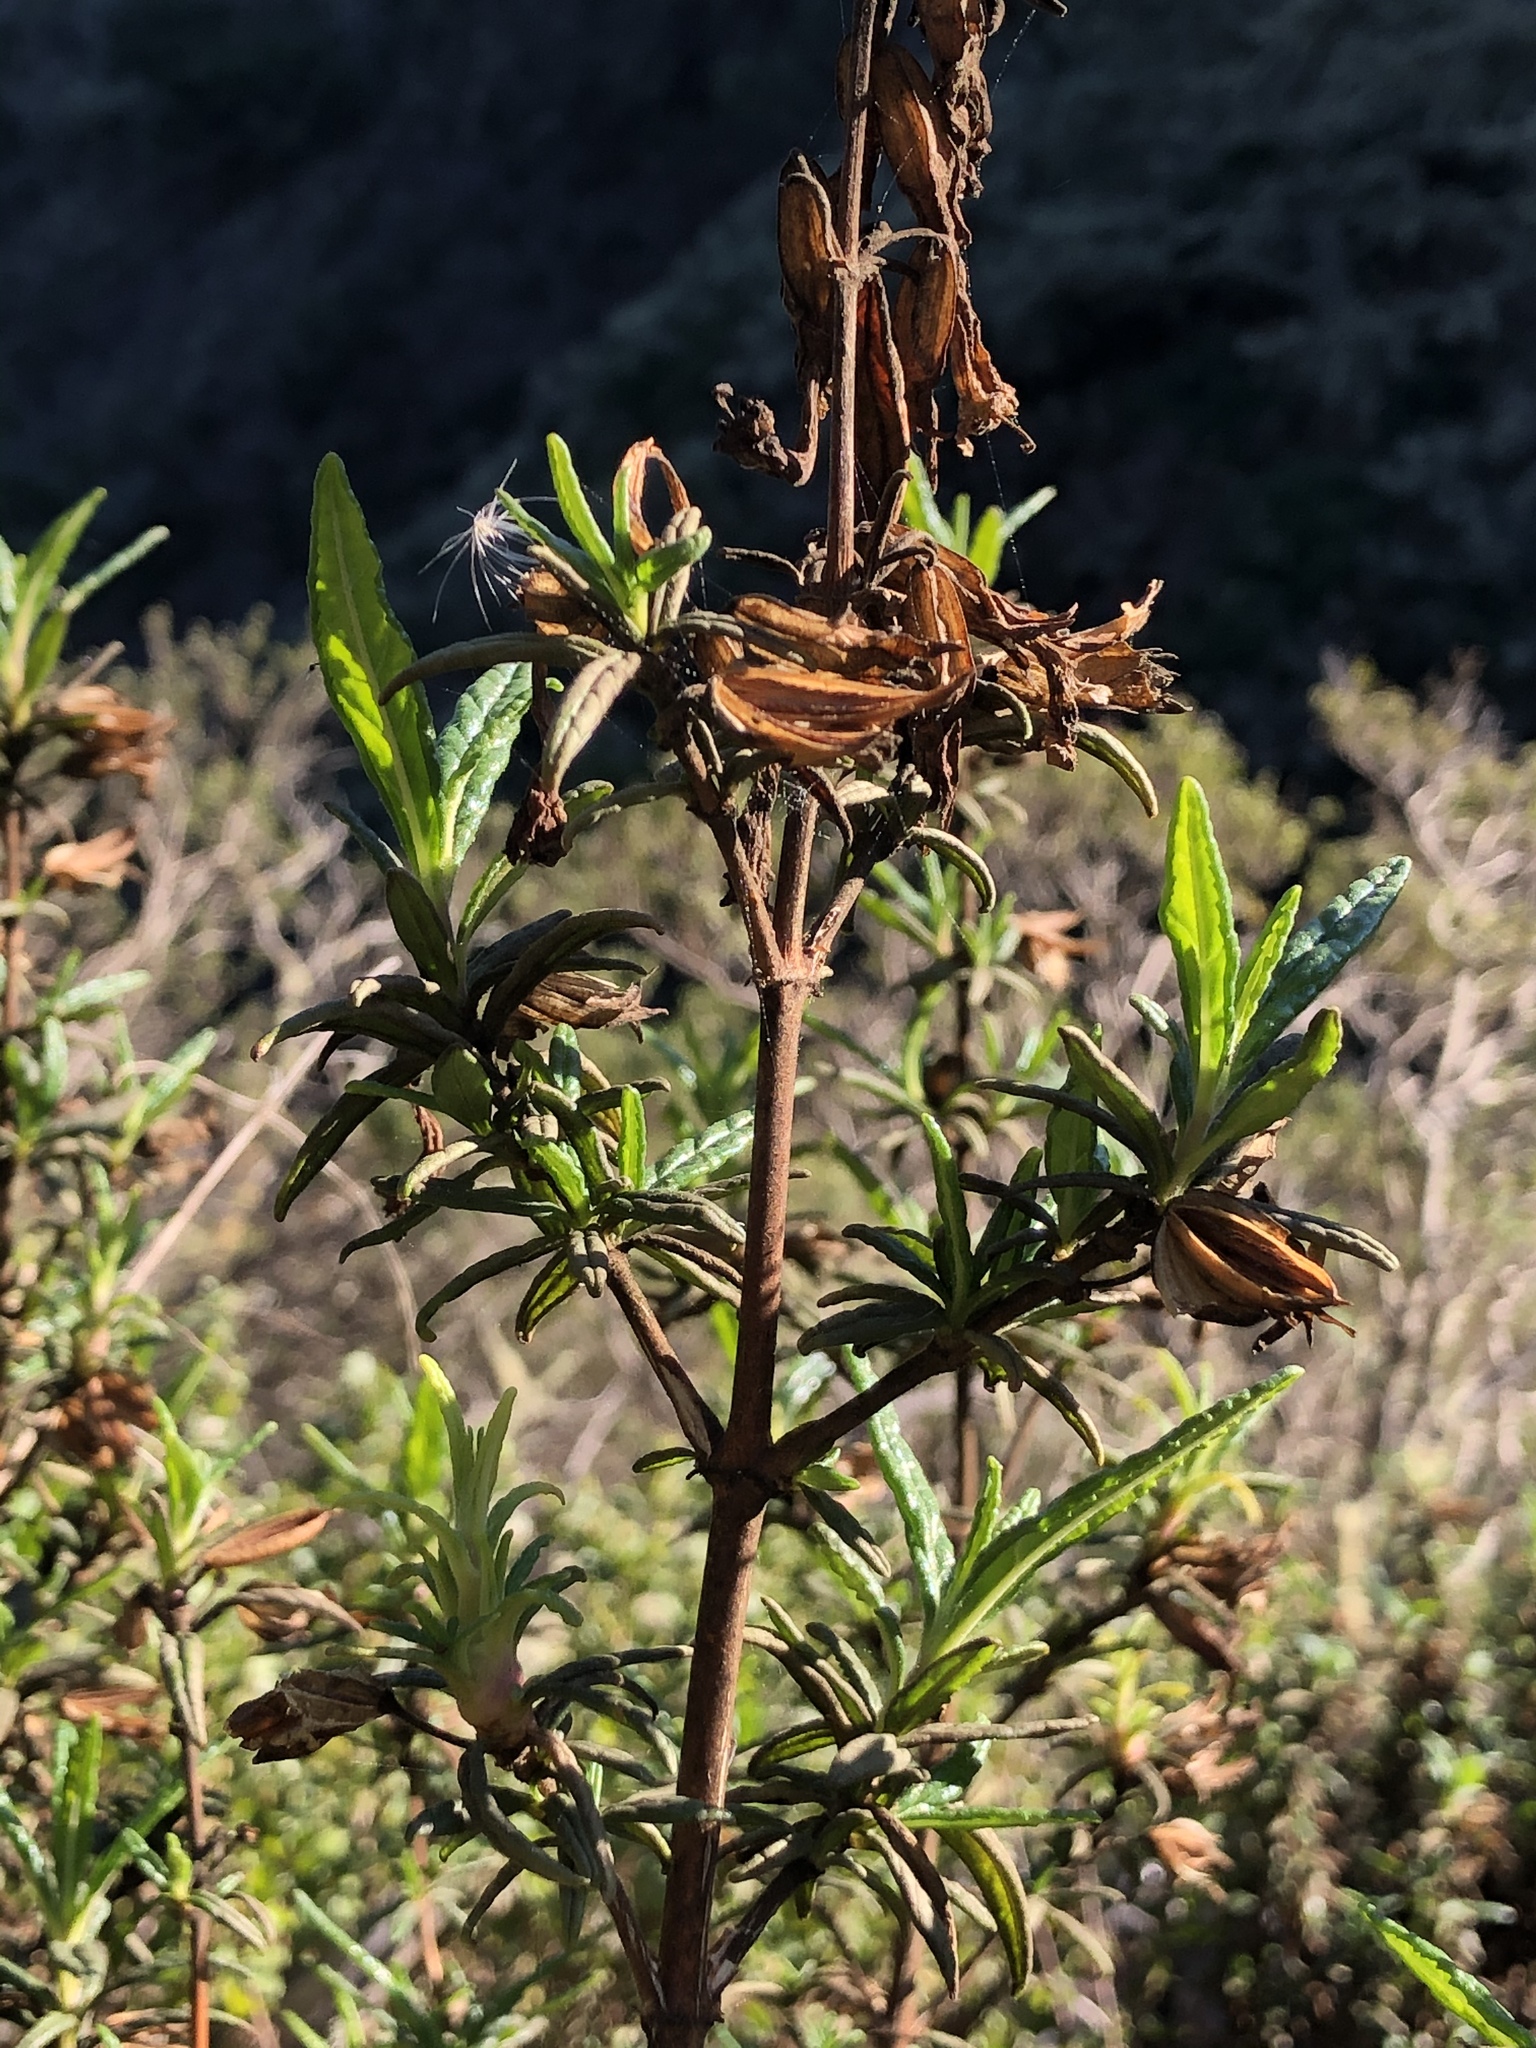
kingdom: Plantae
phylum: Tracheophyta
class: Magnoliopsida
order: Lamiales
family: Phrymaceae
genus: Diplacus
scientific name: Diplacus aurantiacus
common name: Bush monkey-flower
